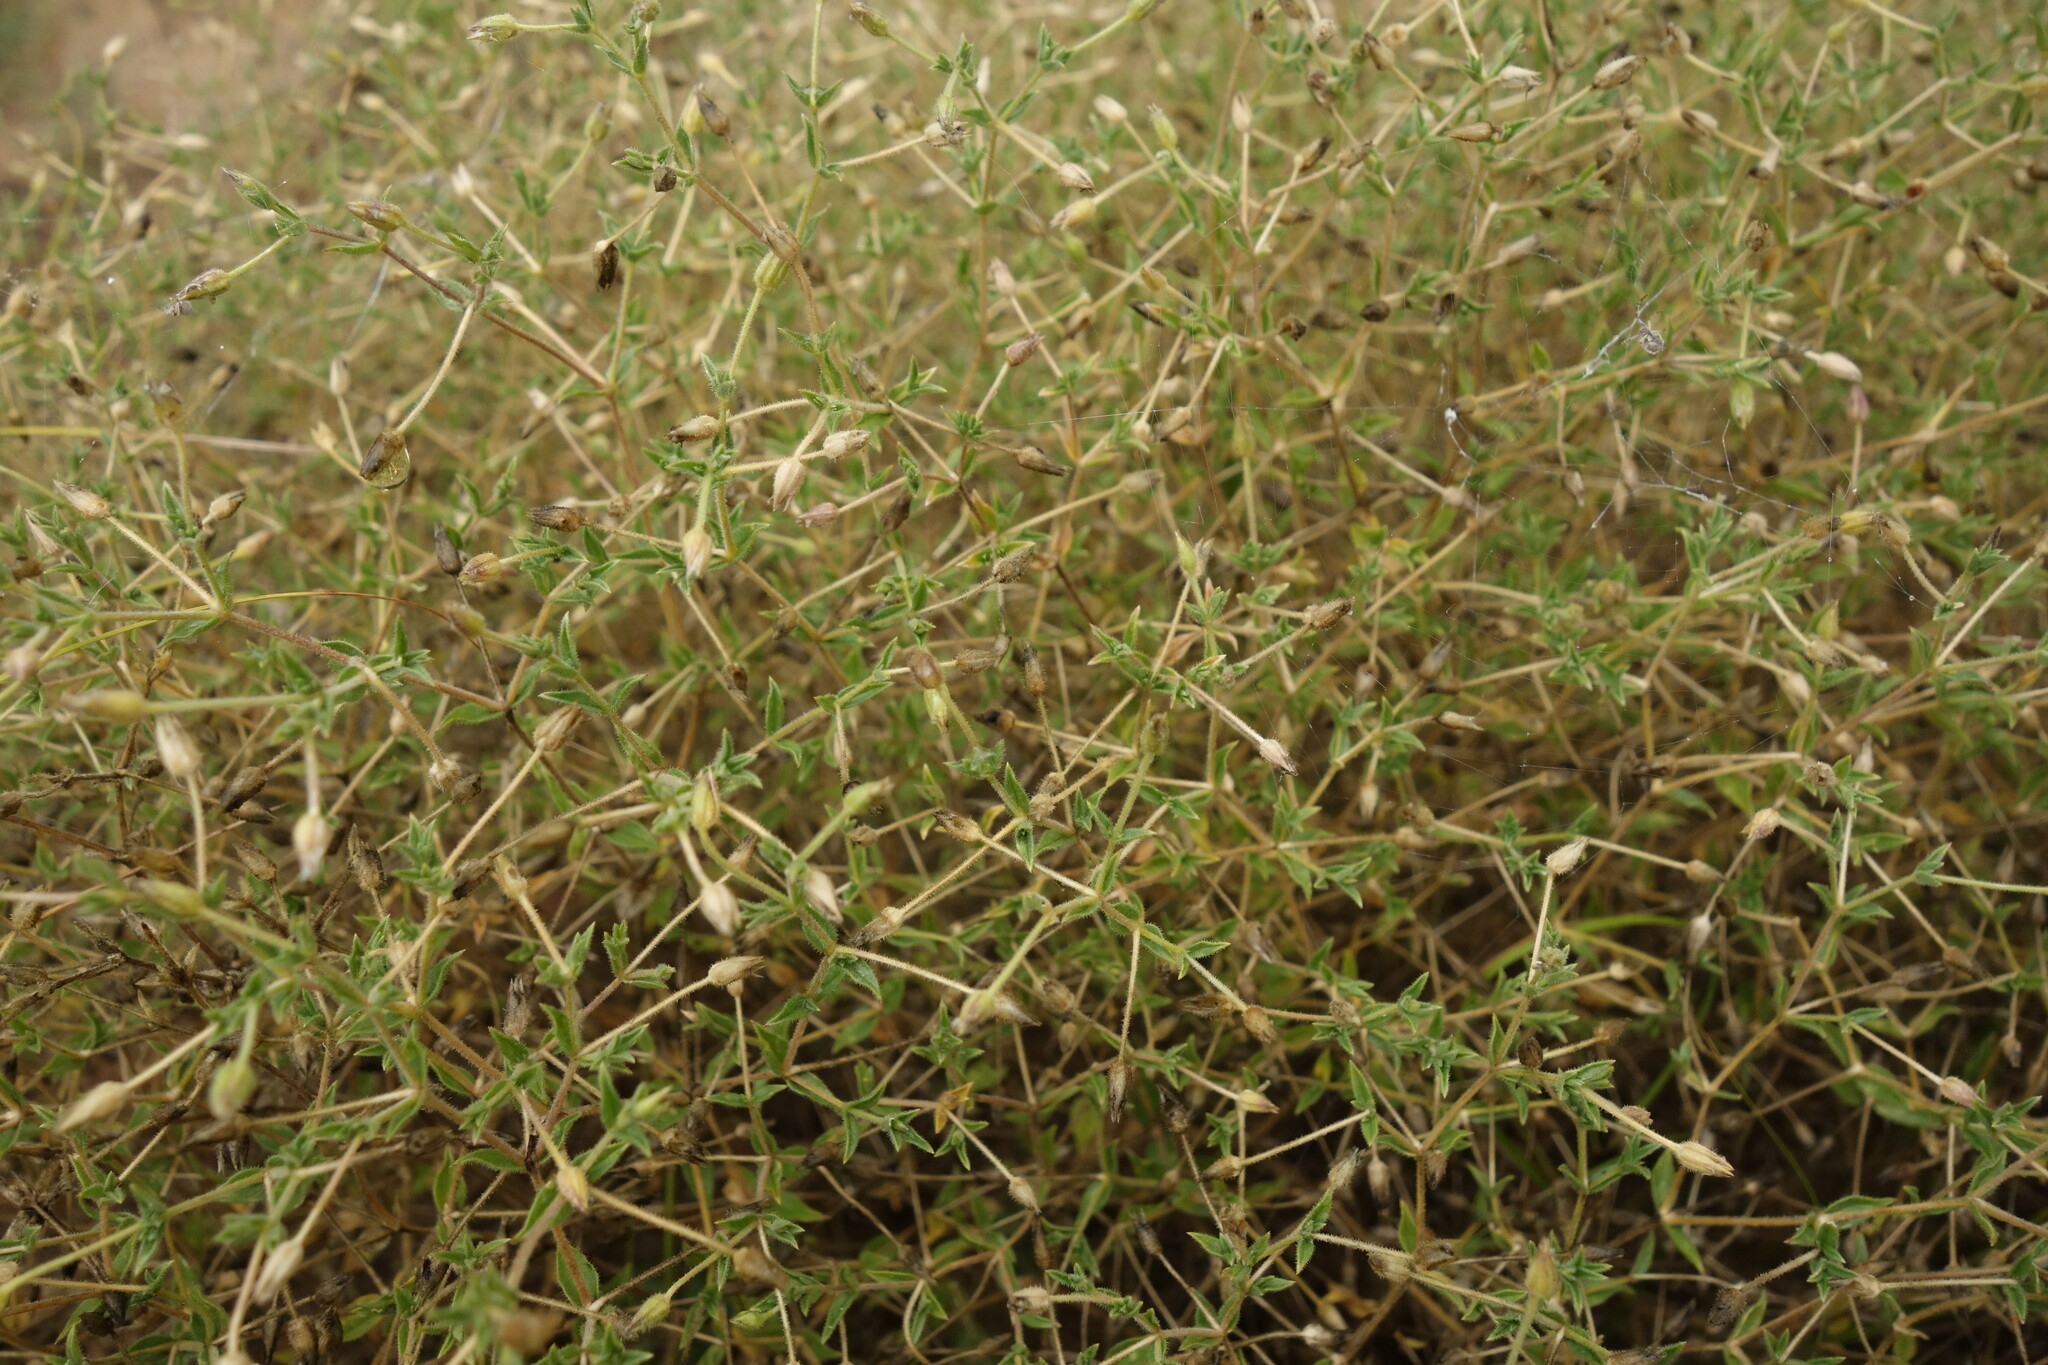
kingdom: Plantae
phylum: Tracheophyta
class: Magnoliopsida
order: Caryophyllales
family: Caryophyllaceae
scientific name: Caryophyllaceae
